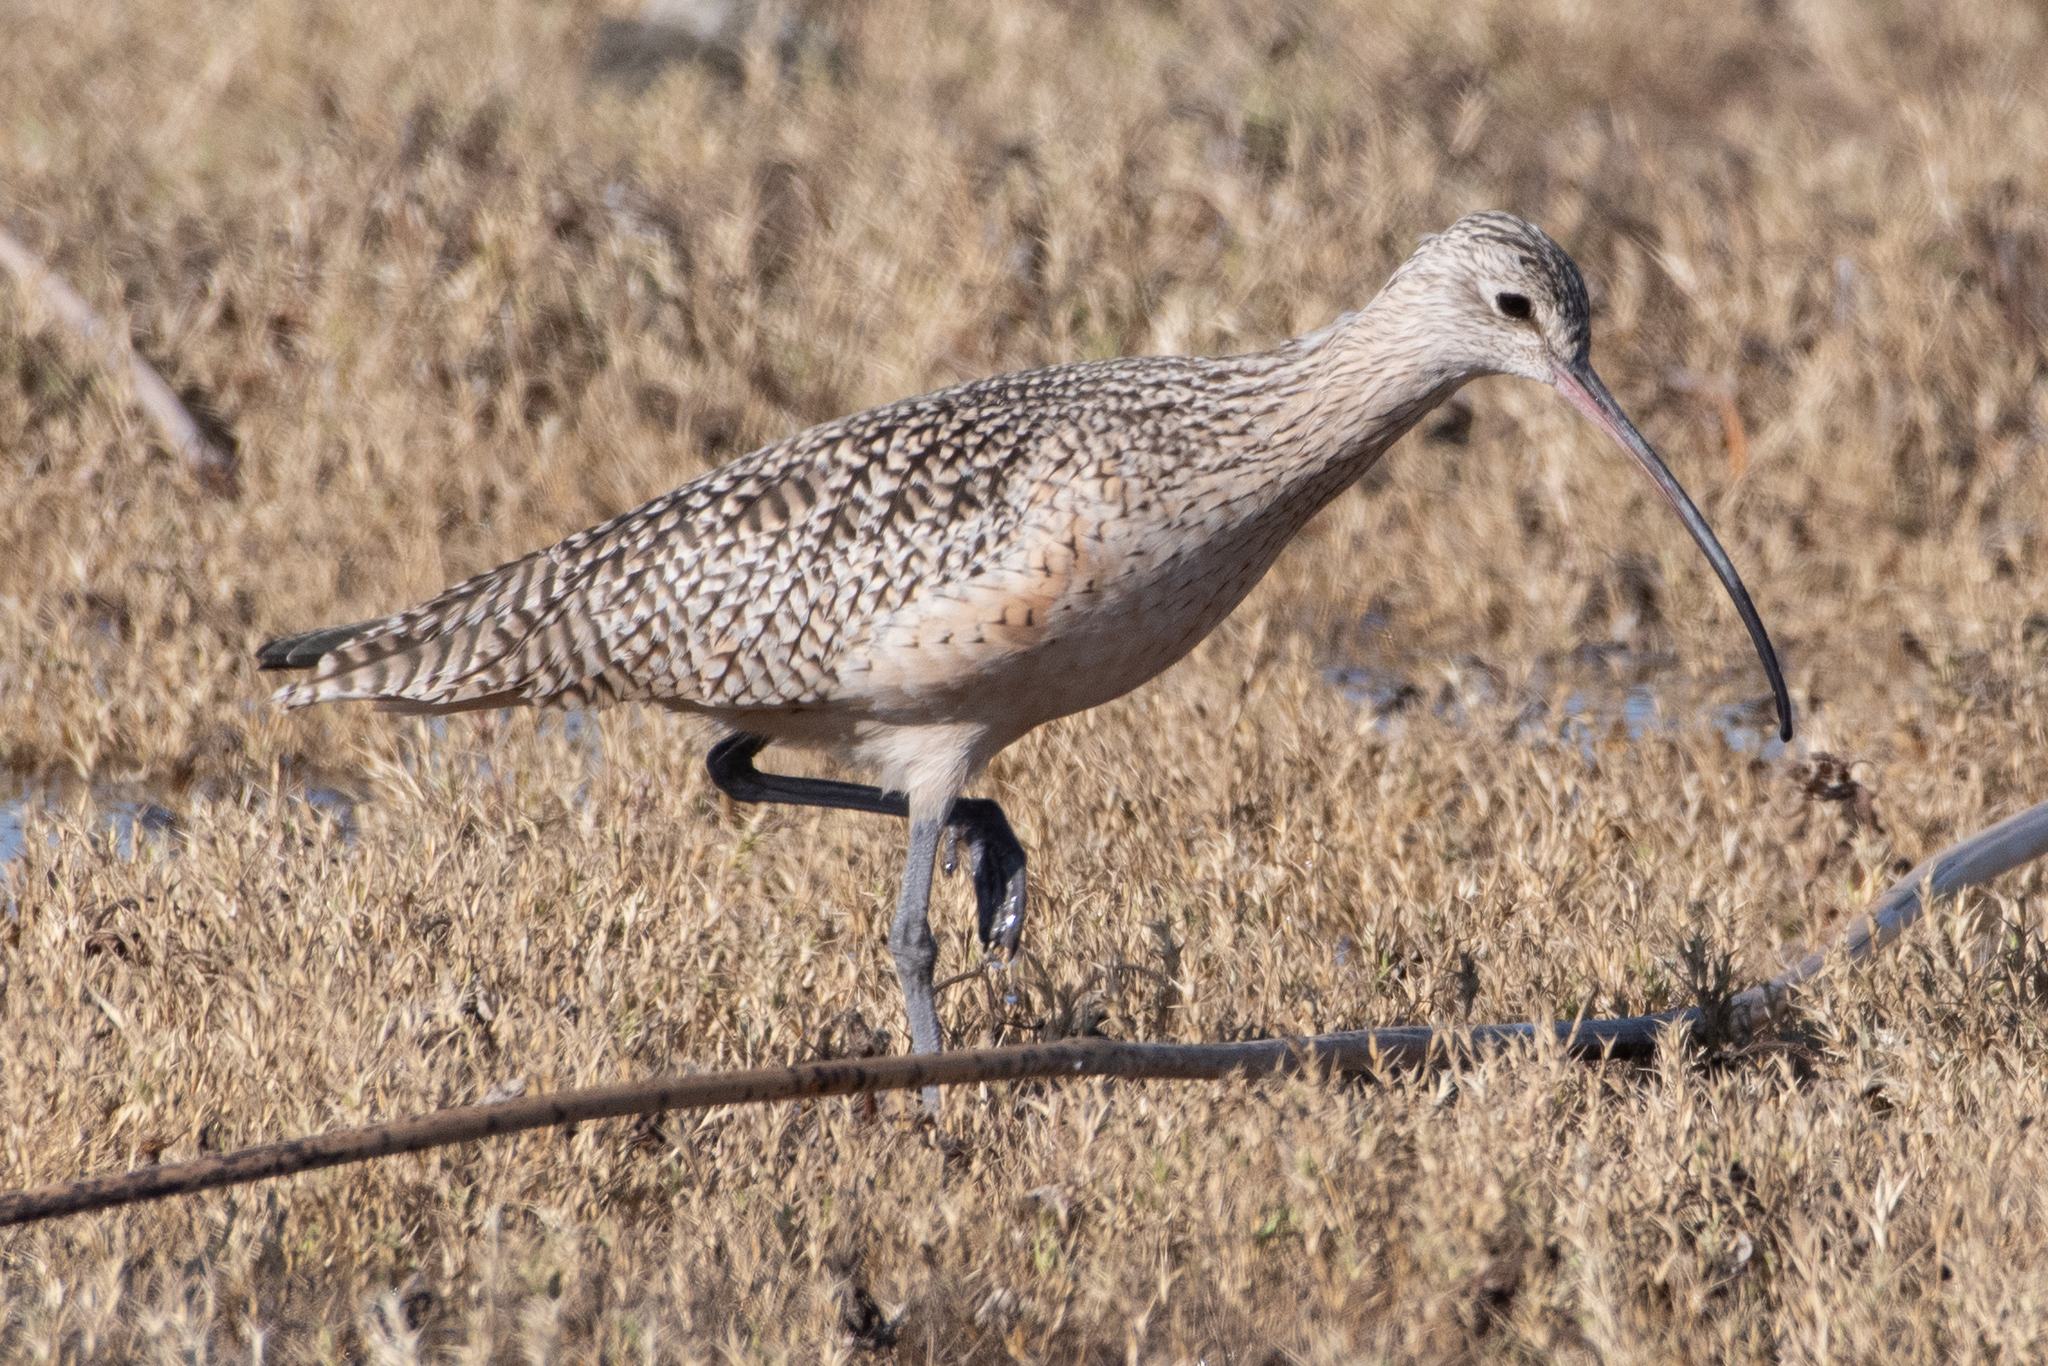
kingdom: Animalia
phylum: Chordata
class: Aves
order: Charadriiformes
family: Scolopacidae
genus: Numenius
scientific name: Numenius americanus
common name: Long-billed curlew
